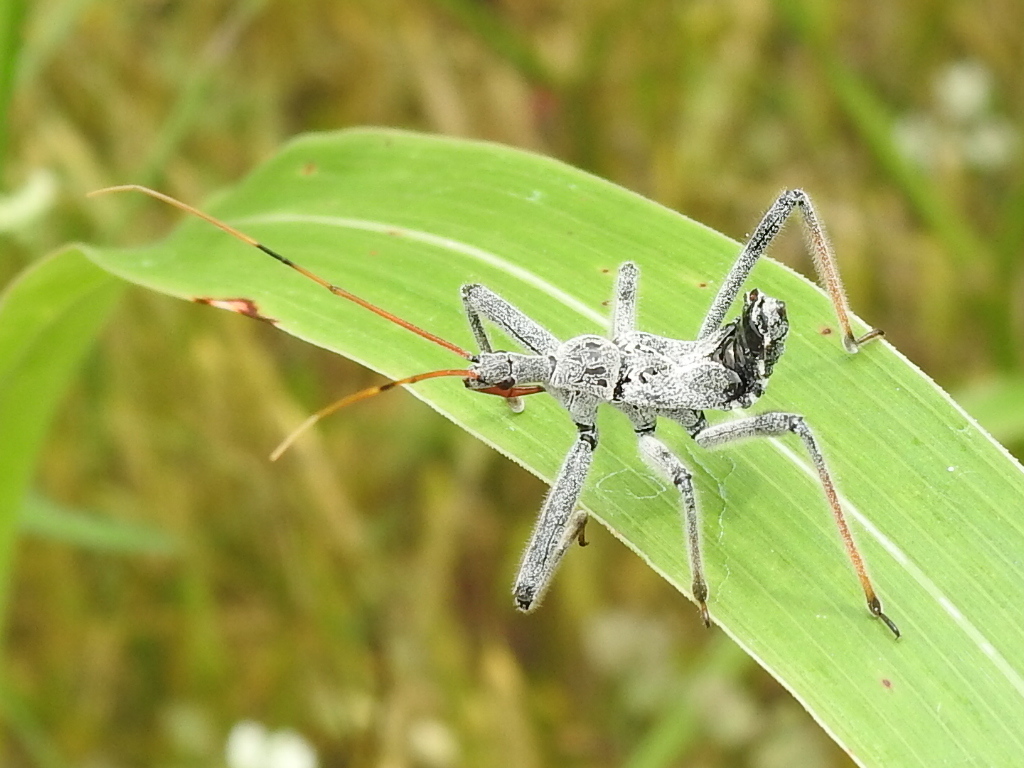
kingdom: Animalia
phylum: Arthropoda
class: Insecta
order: Hemiptera
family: Reduviidae
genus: Arilus
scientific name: Arilus cristatus
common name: North american wheel bug
